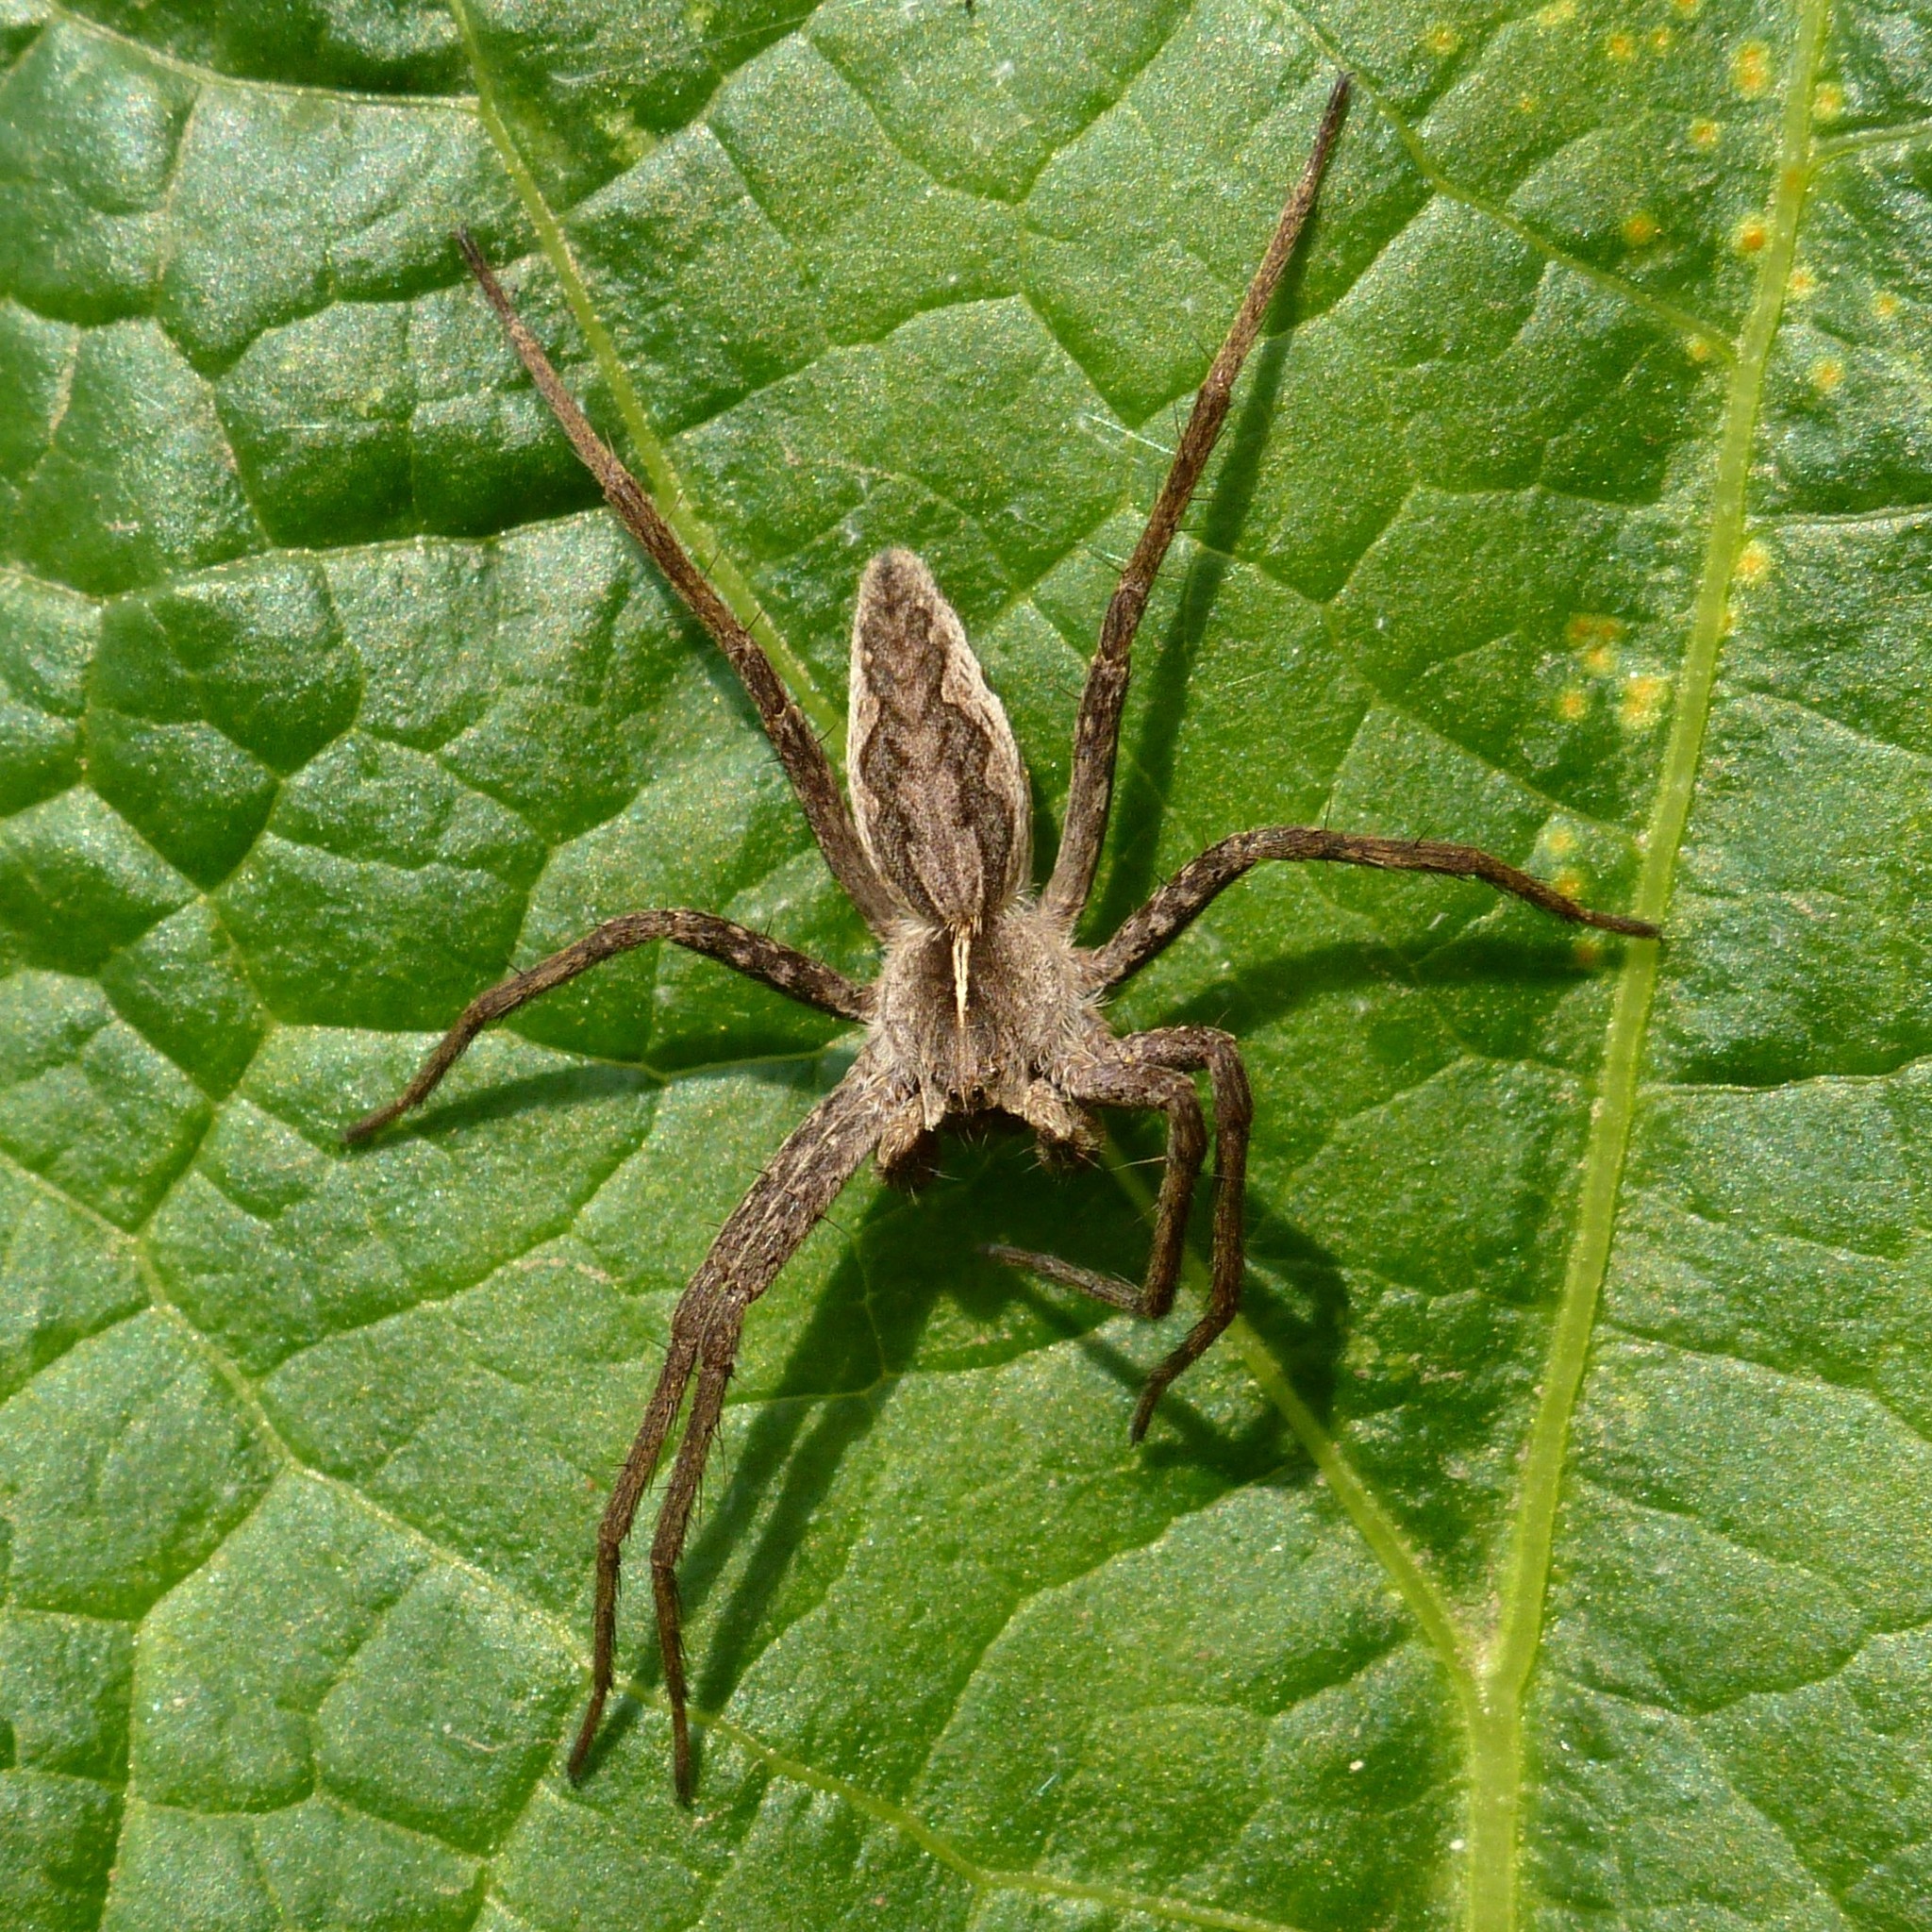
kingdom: Animalia
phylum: Arthropoda
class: Arachnida
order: Araneae
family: Pisauridae
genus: Pisaura
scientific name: Pisaura
